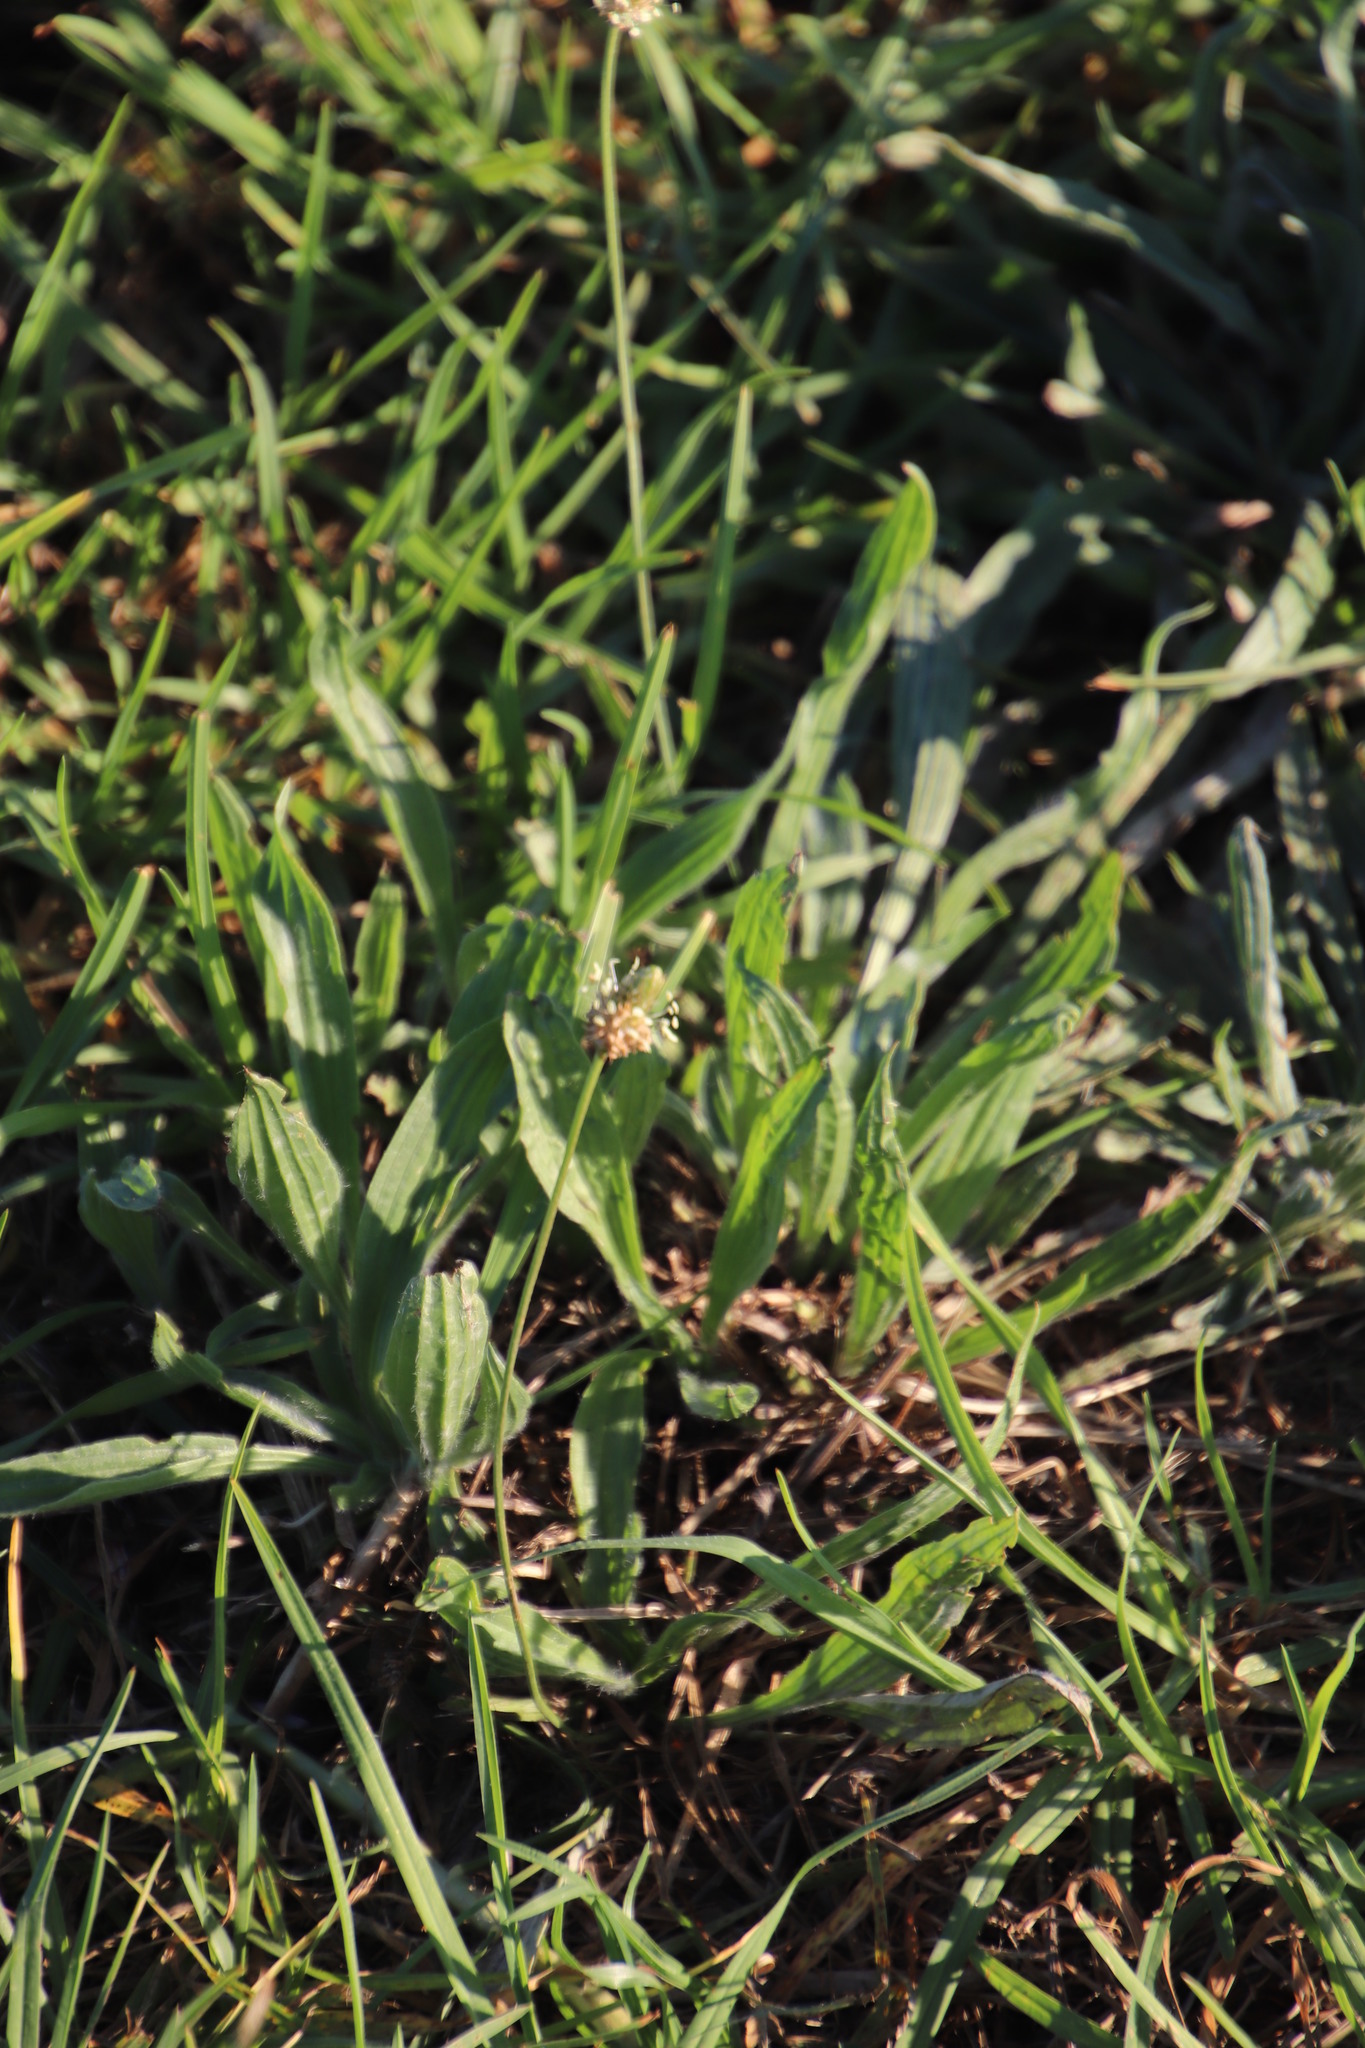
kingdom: Plantae
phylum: Tracheophyta
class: Magnoliopsida
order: Lamiales
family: Plantaginaceae
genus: Plantago
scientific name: Plantago lanceolata
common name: Ribwort plantain
